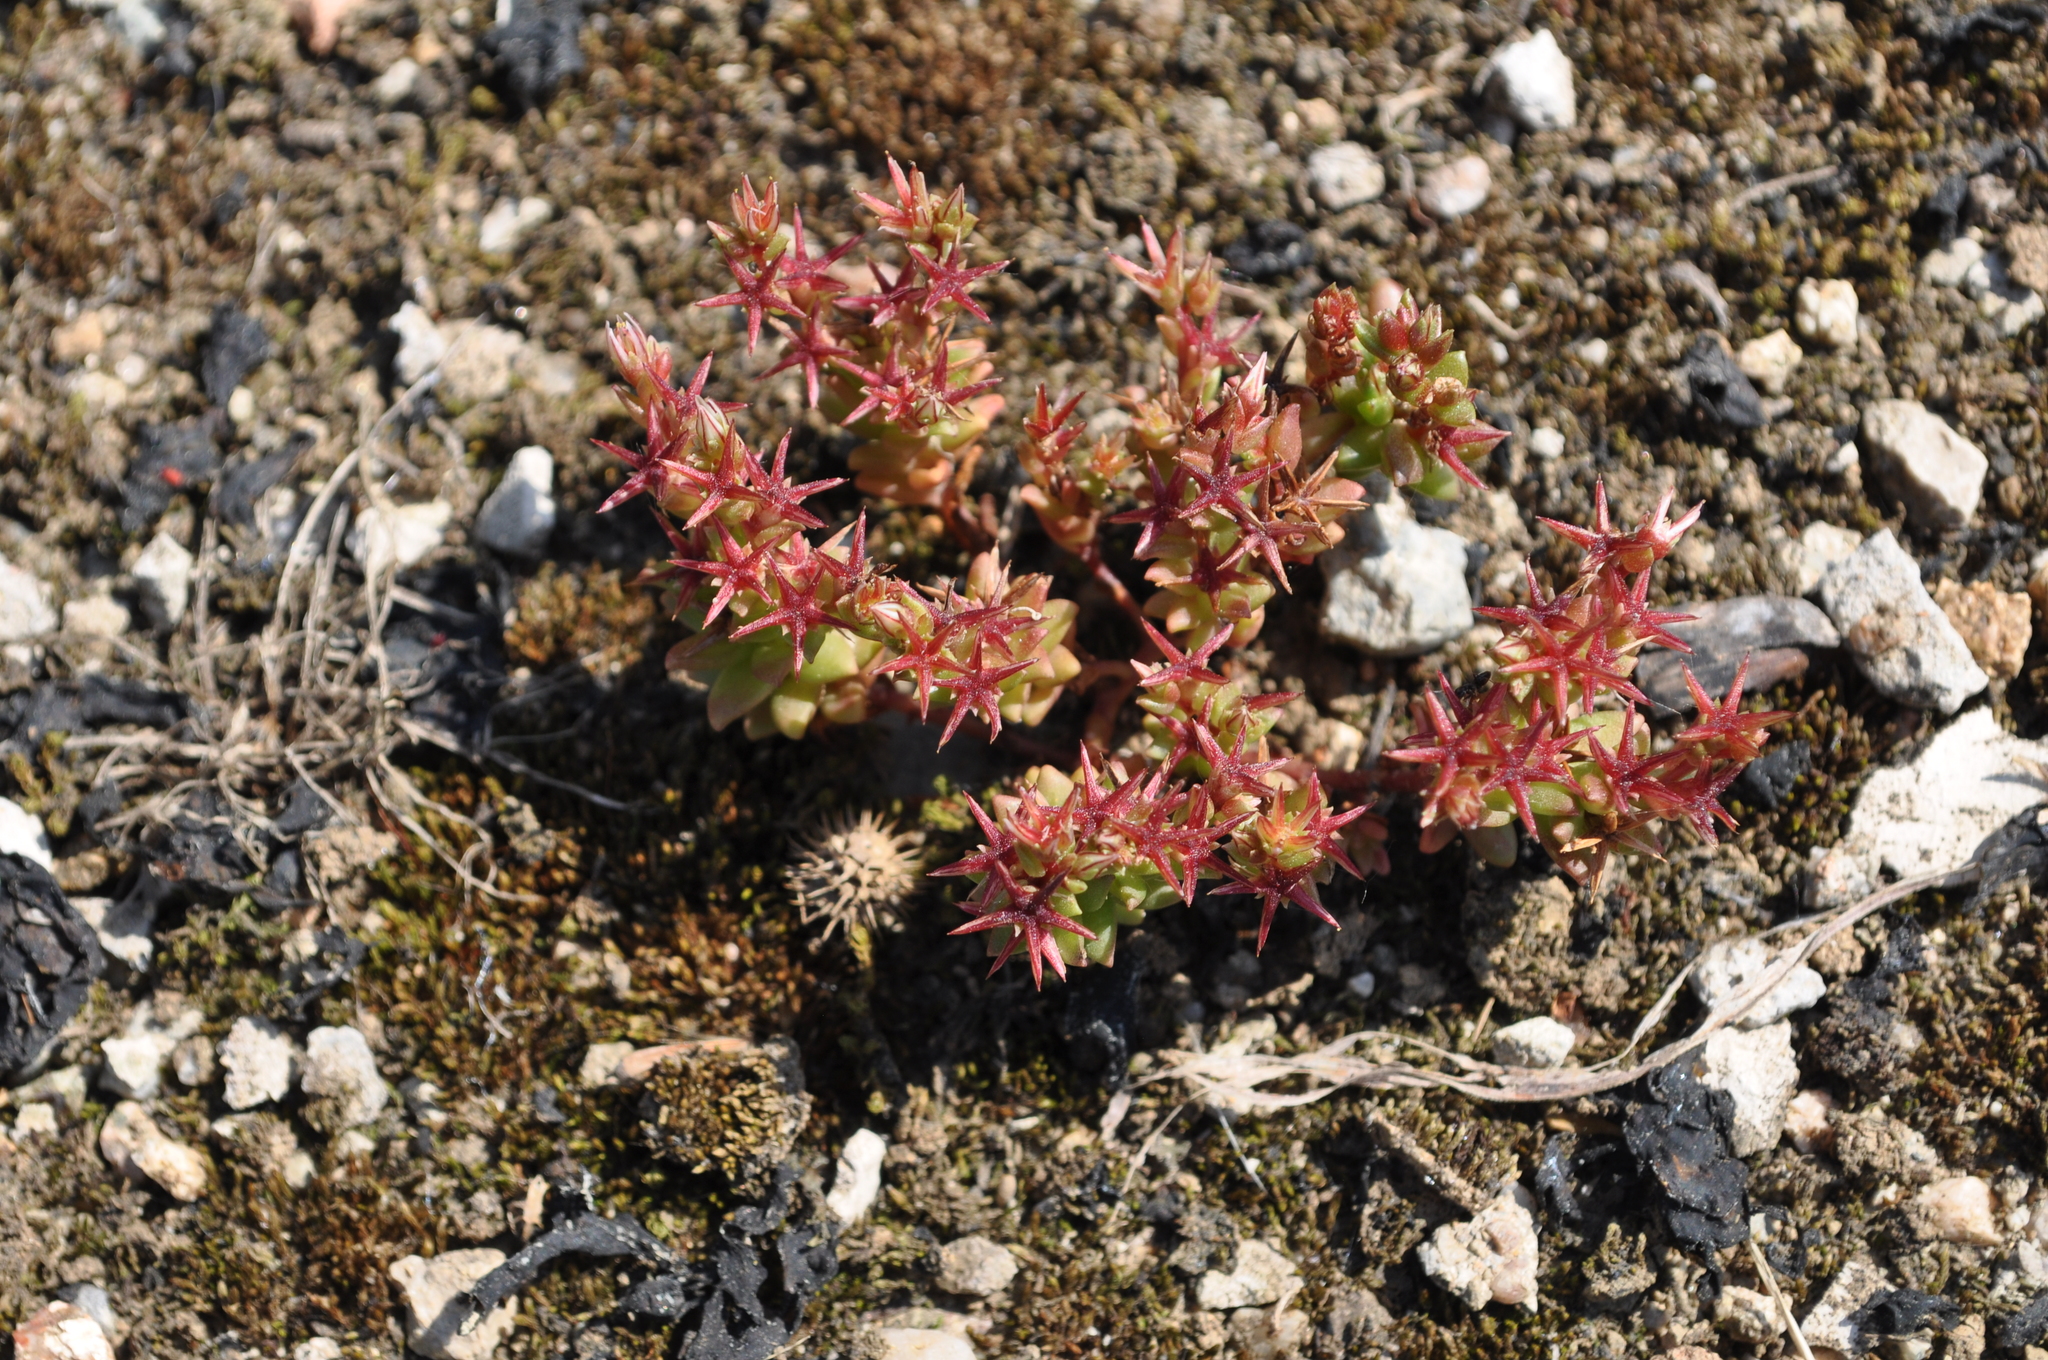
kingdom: Plantae
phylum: Tracheophyta
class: Magnoliopsida
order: Saxifragales
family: Crassulaceae
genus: Sedum
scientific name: Sedum cespitosum
